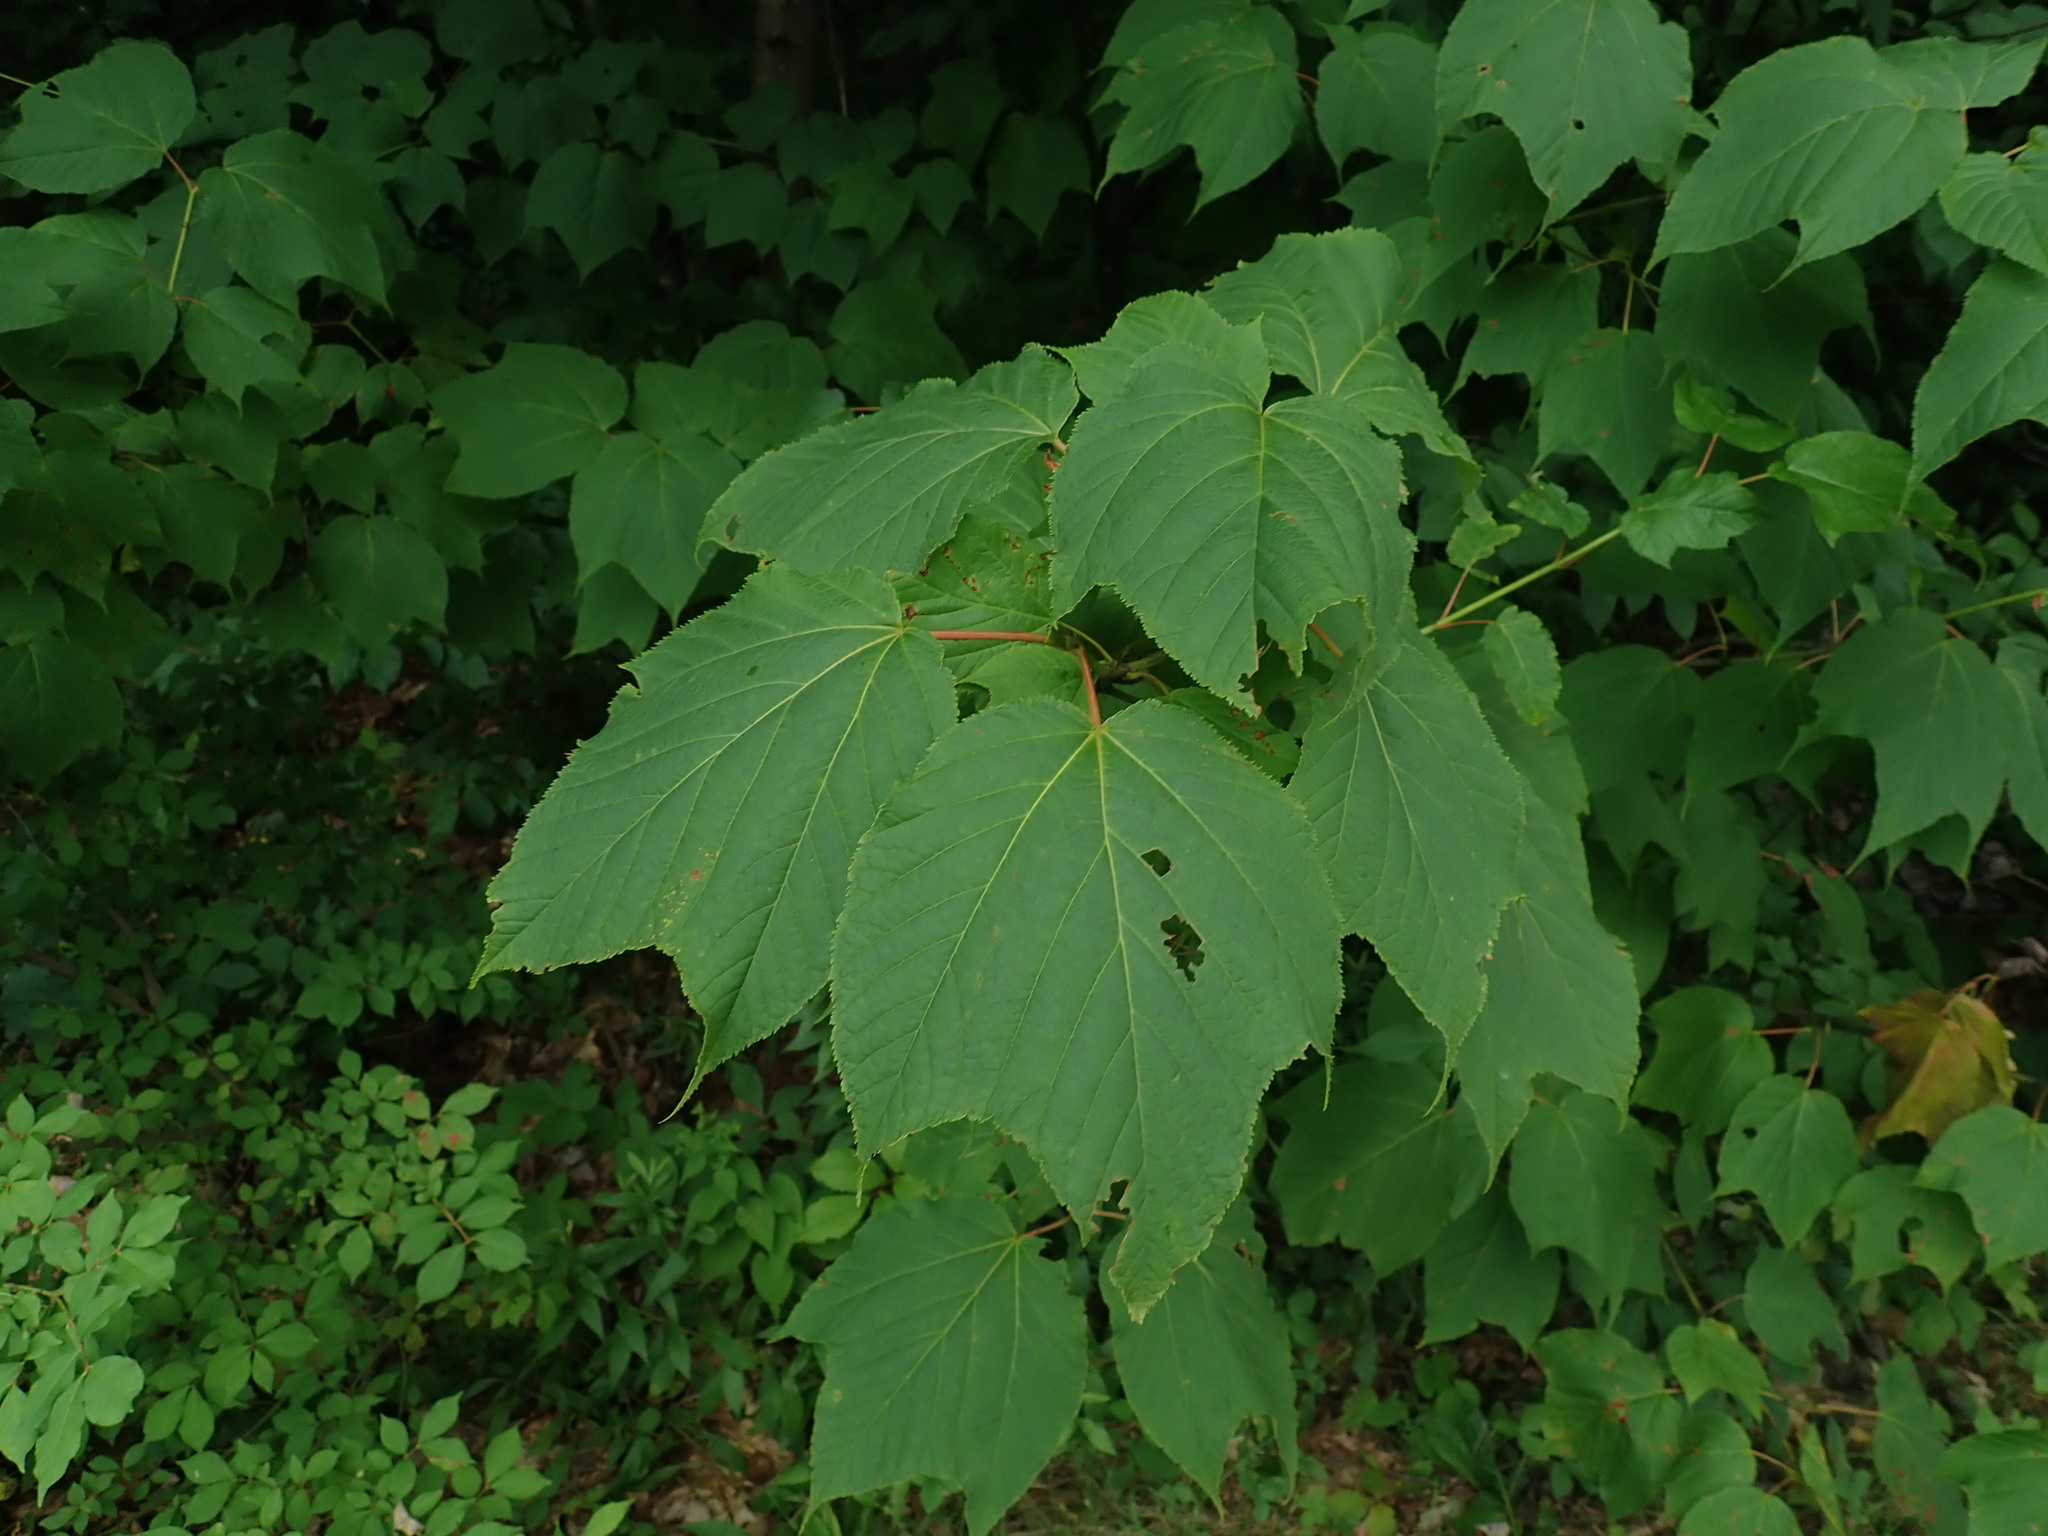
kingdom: Plantae
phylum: Tracheophyta
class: Magnoliopsida
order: Sapindales
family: Sapindaceae
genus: Acer
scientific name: Acer pensylvanicum
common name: Moosewood
